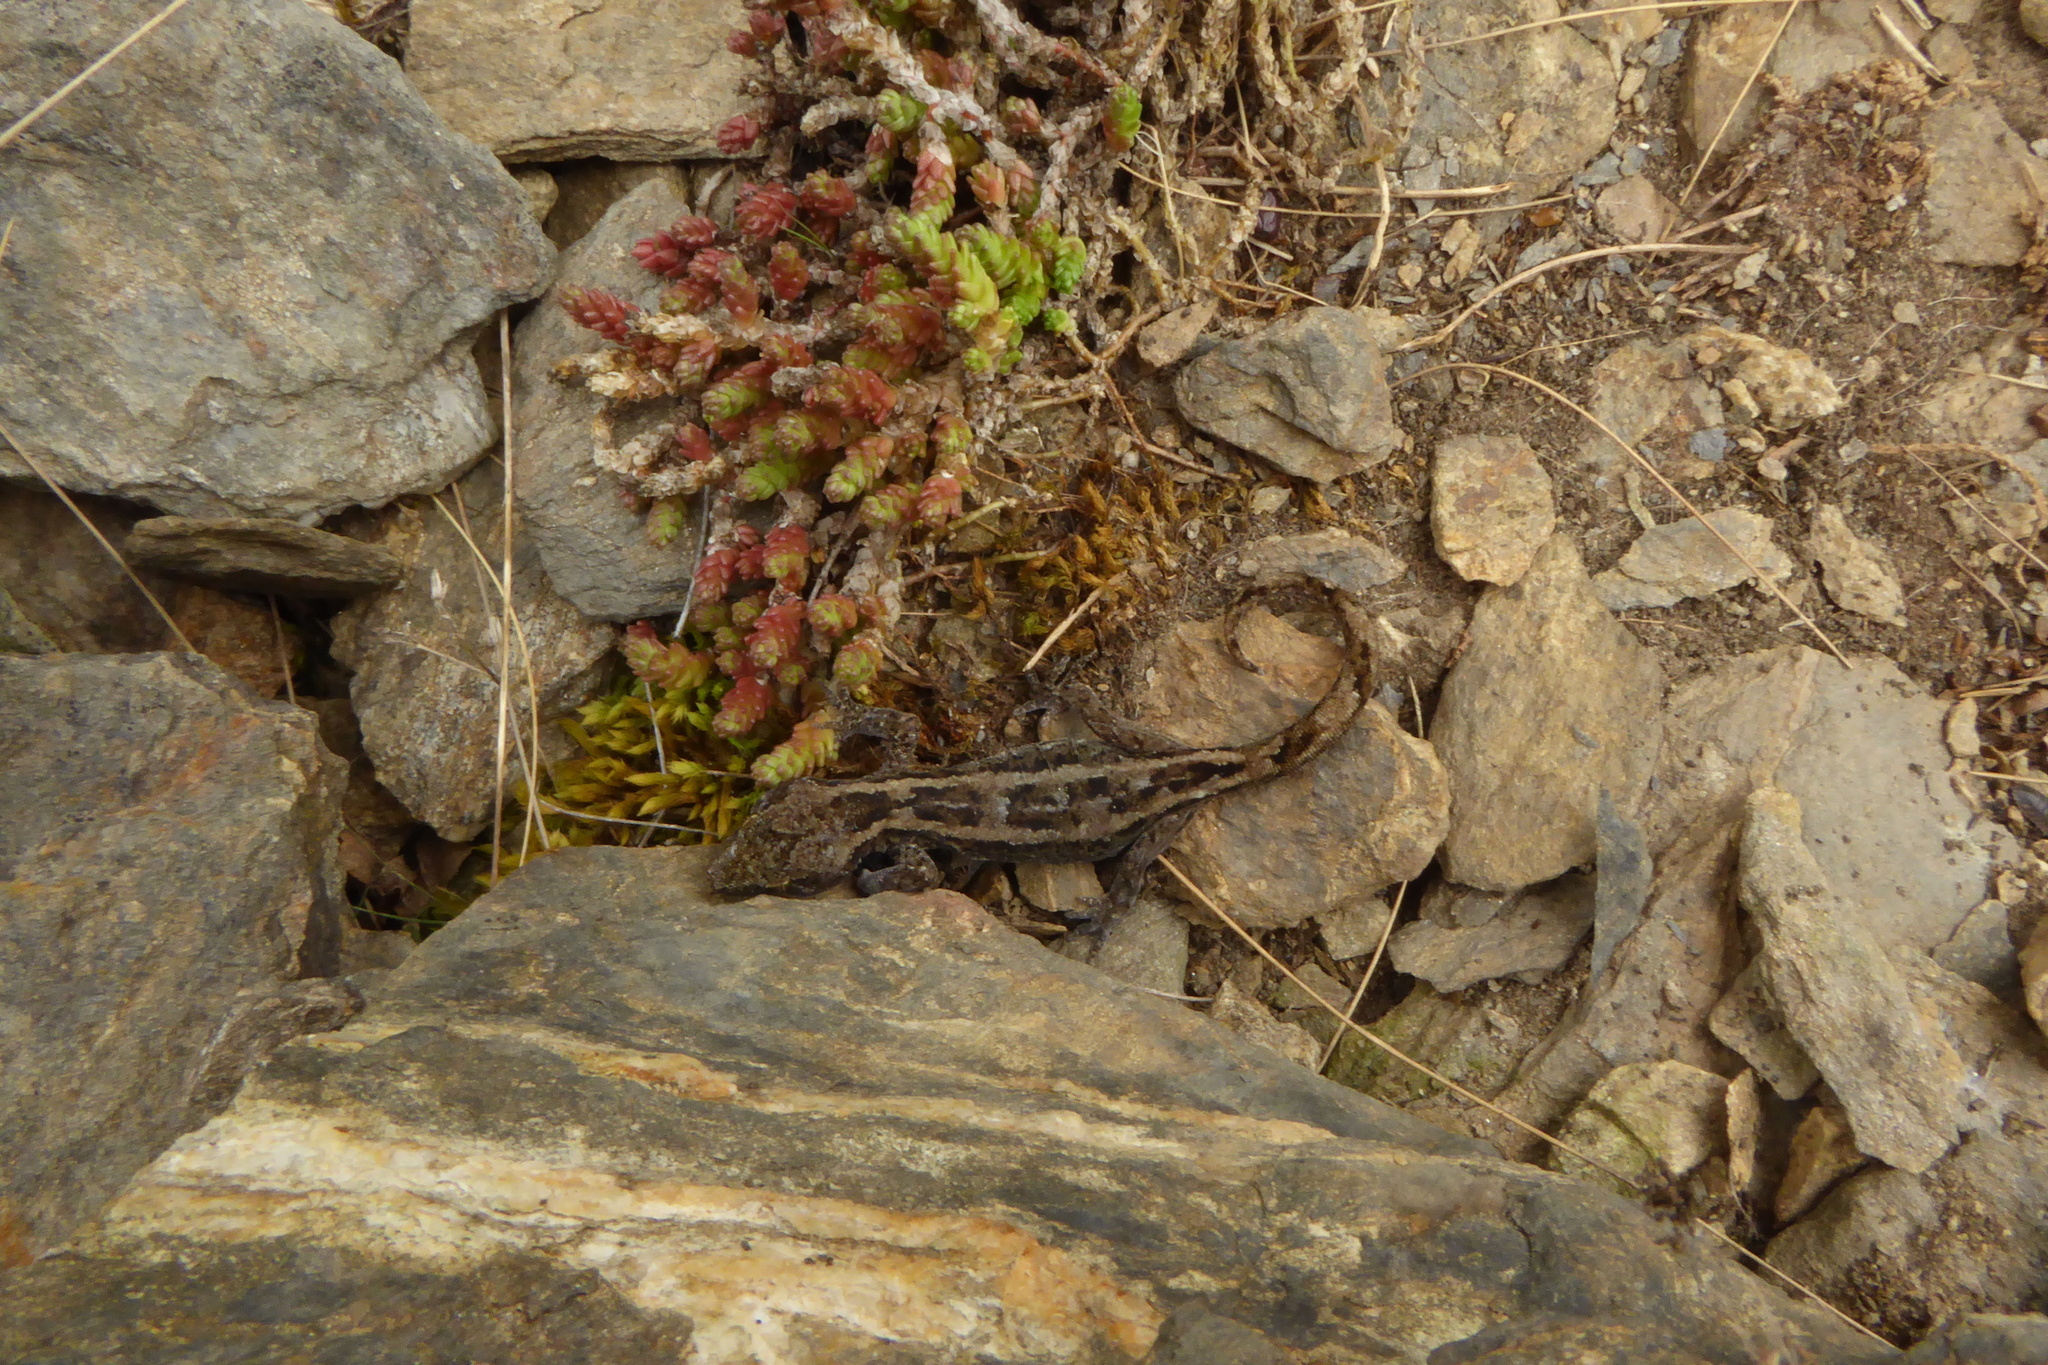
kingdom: Animalia
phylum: Chordata
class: Squamata
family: Diplodactylidae
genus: Woodworthia
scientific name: Woodworthia
